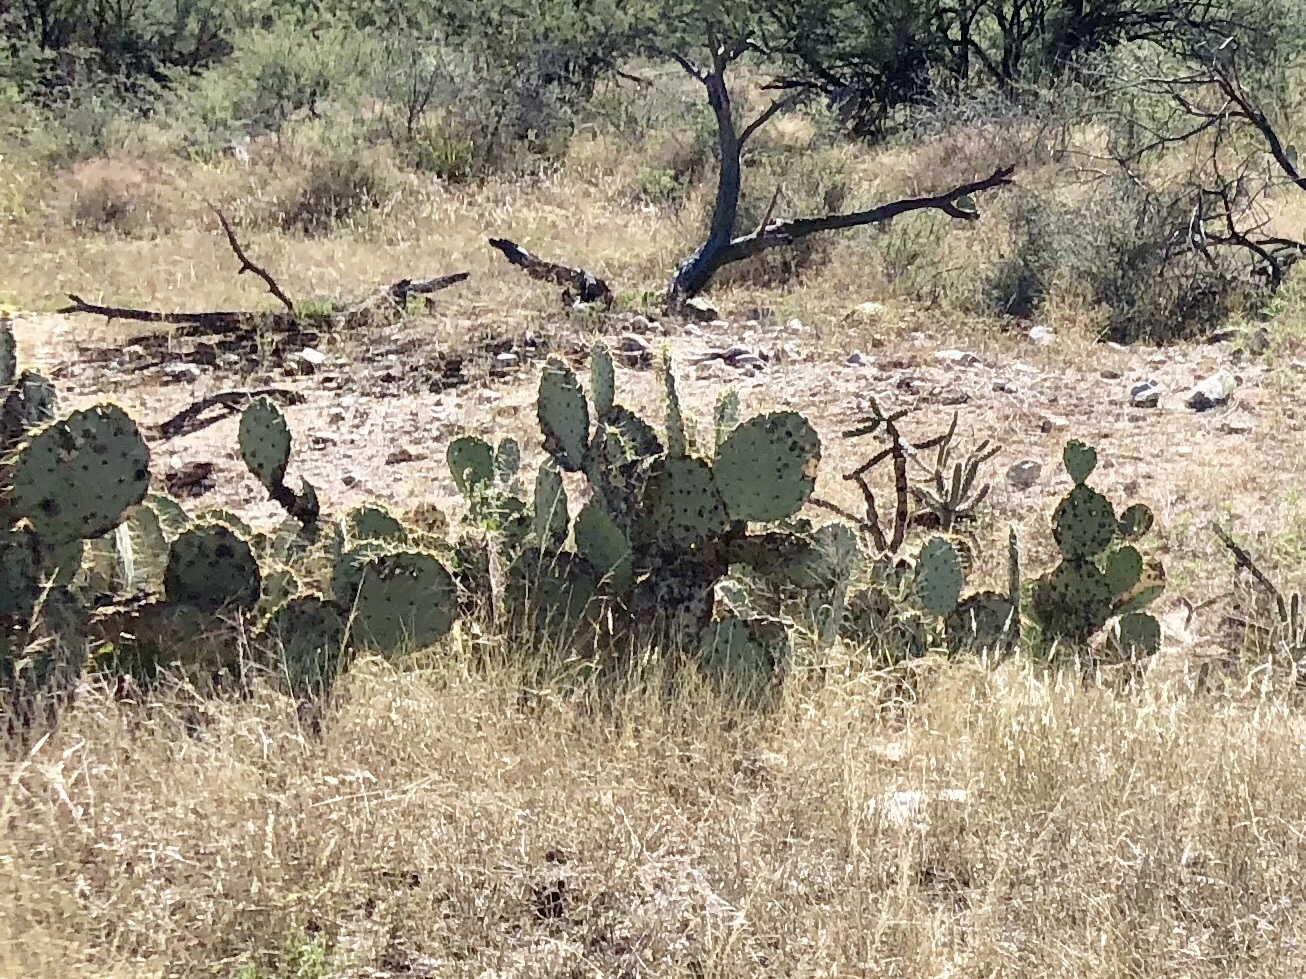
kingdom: Plantae
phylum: Tracheophyta
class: Magnoliopsida
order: Caryophyllales
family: Cactaceae
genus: Opuntia
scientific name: Opuntia engelmannii
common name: Cactus-apple
